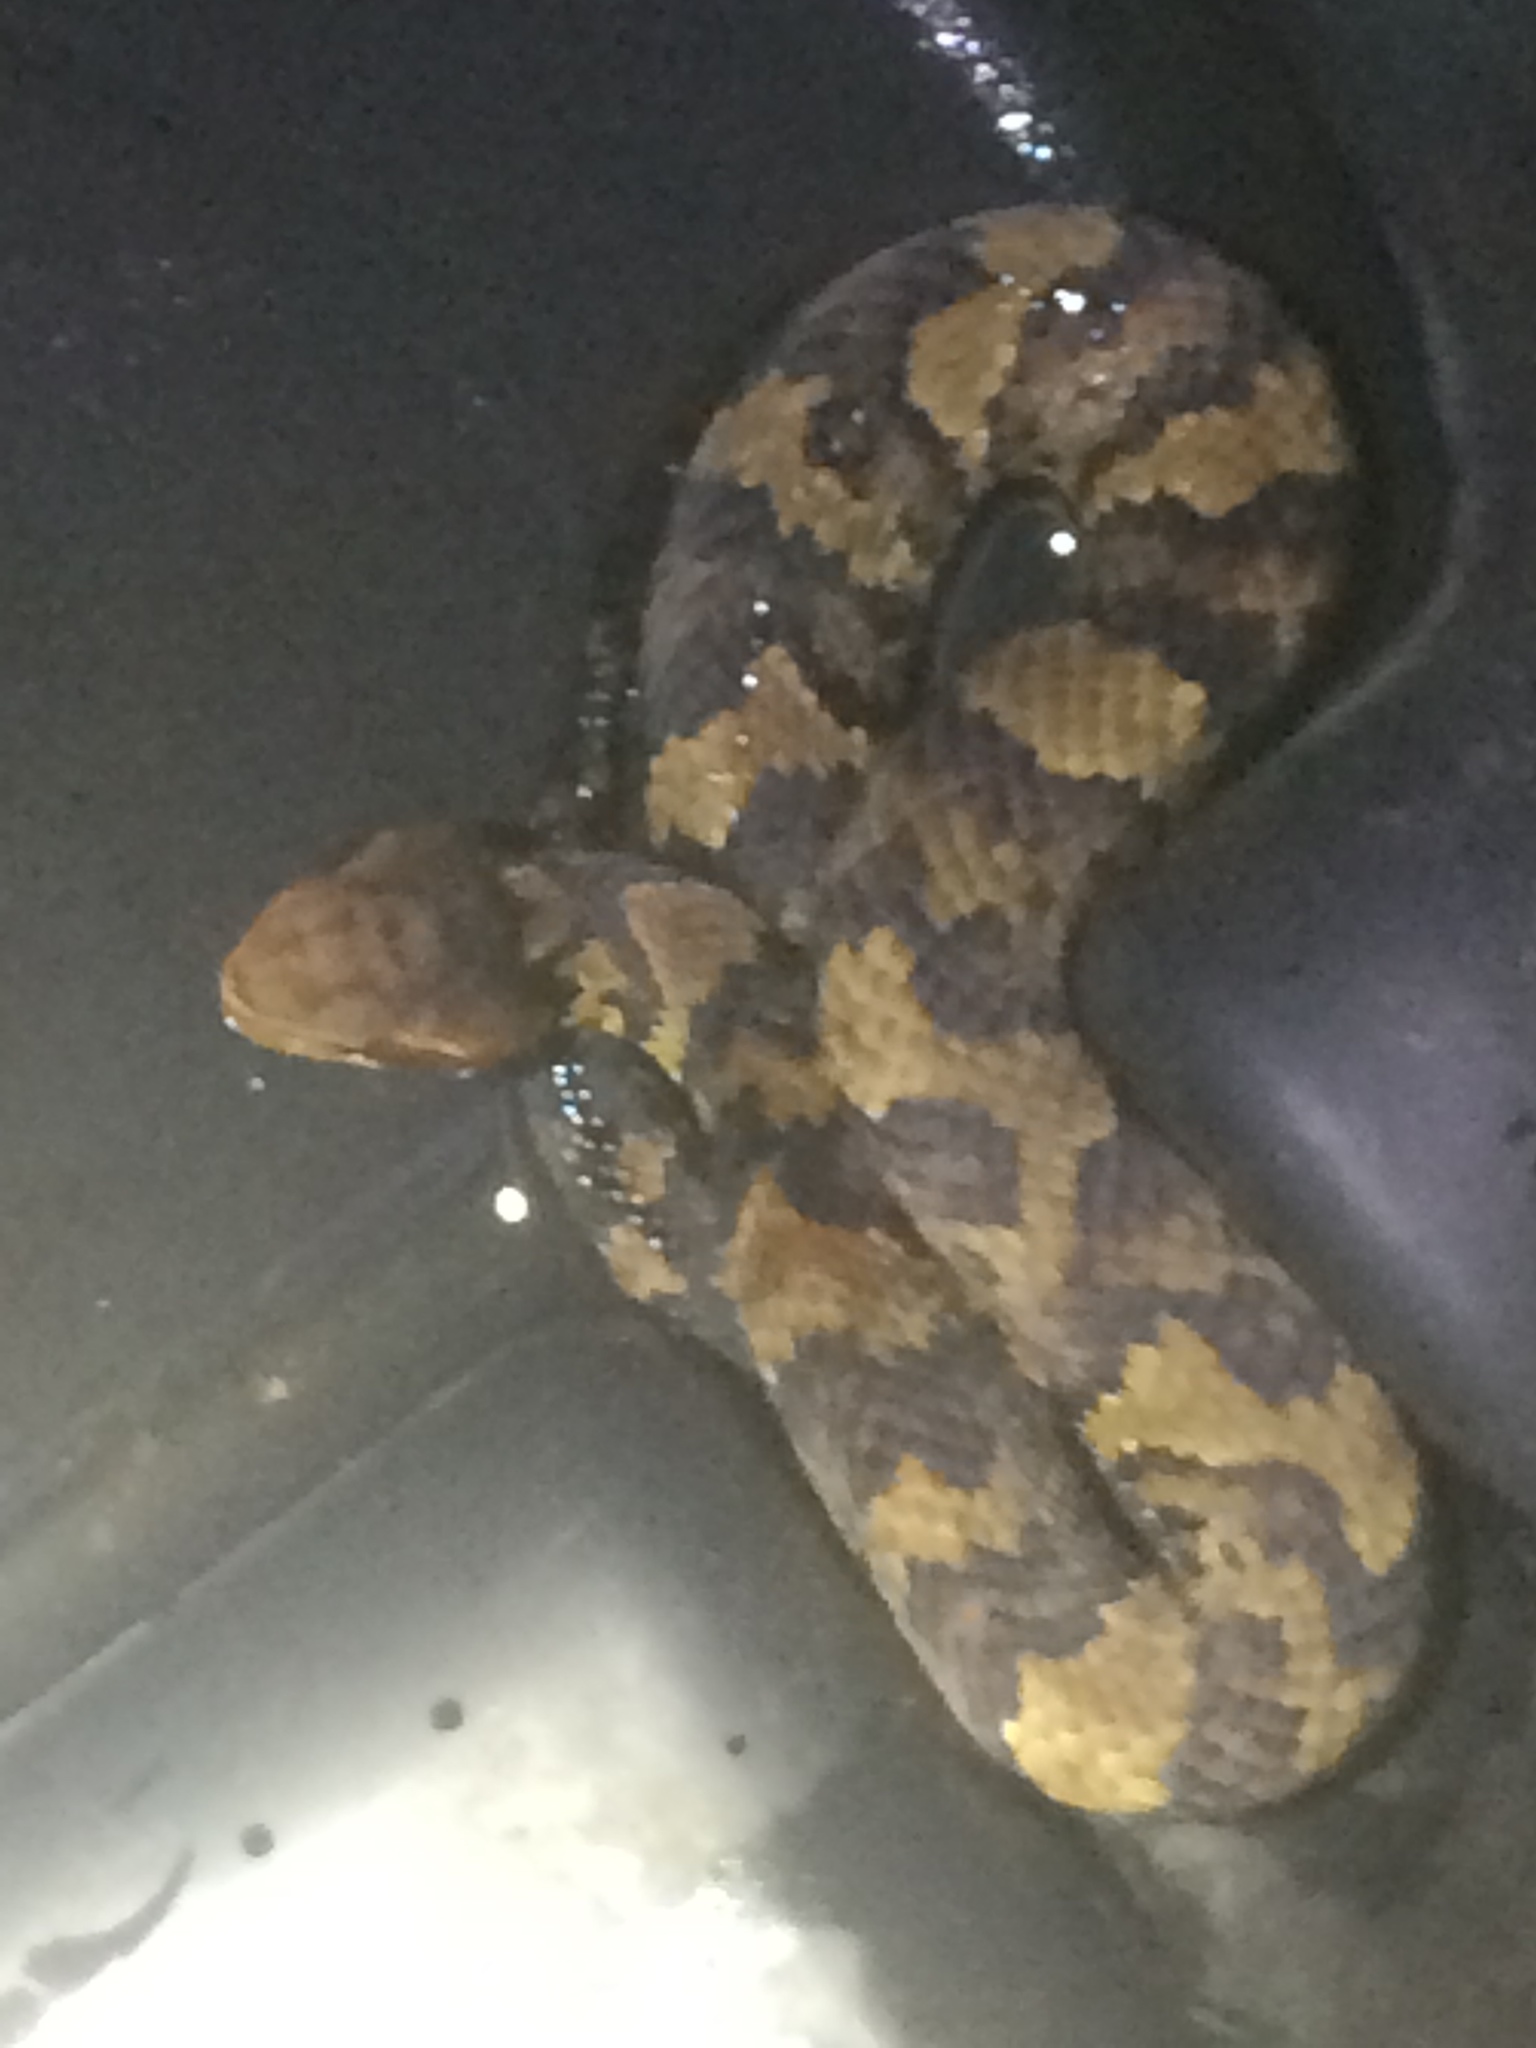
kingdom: Animalia
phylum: Chordata
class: Squamata
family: Viperidae
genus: Agkistrodon
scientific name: Agkistrodon piscivorus
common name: Cottonmouth
